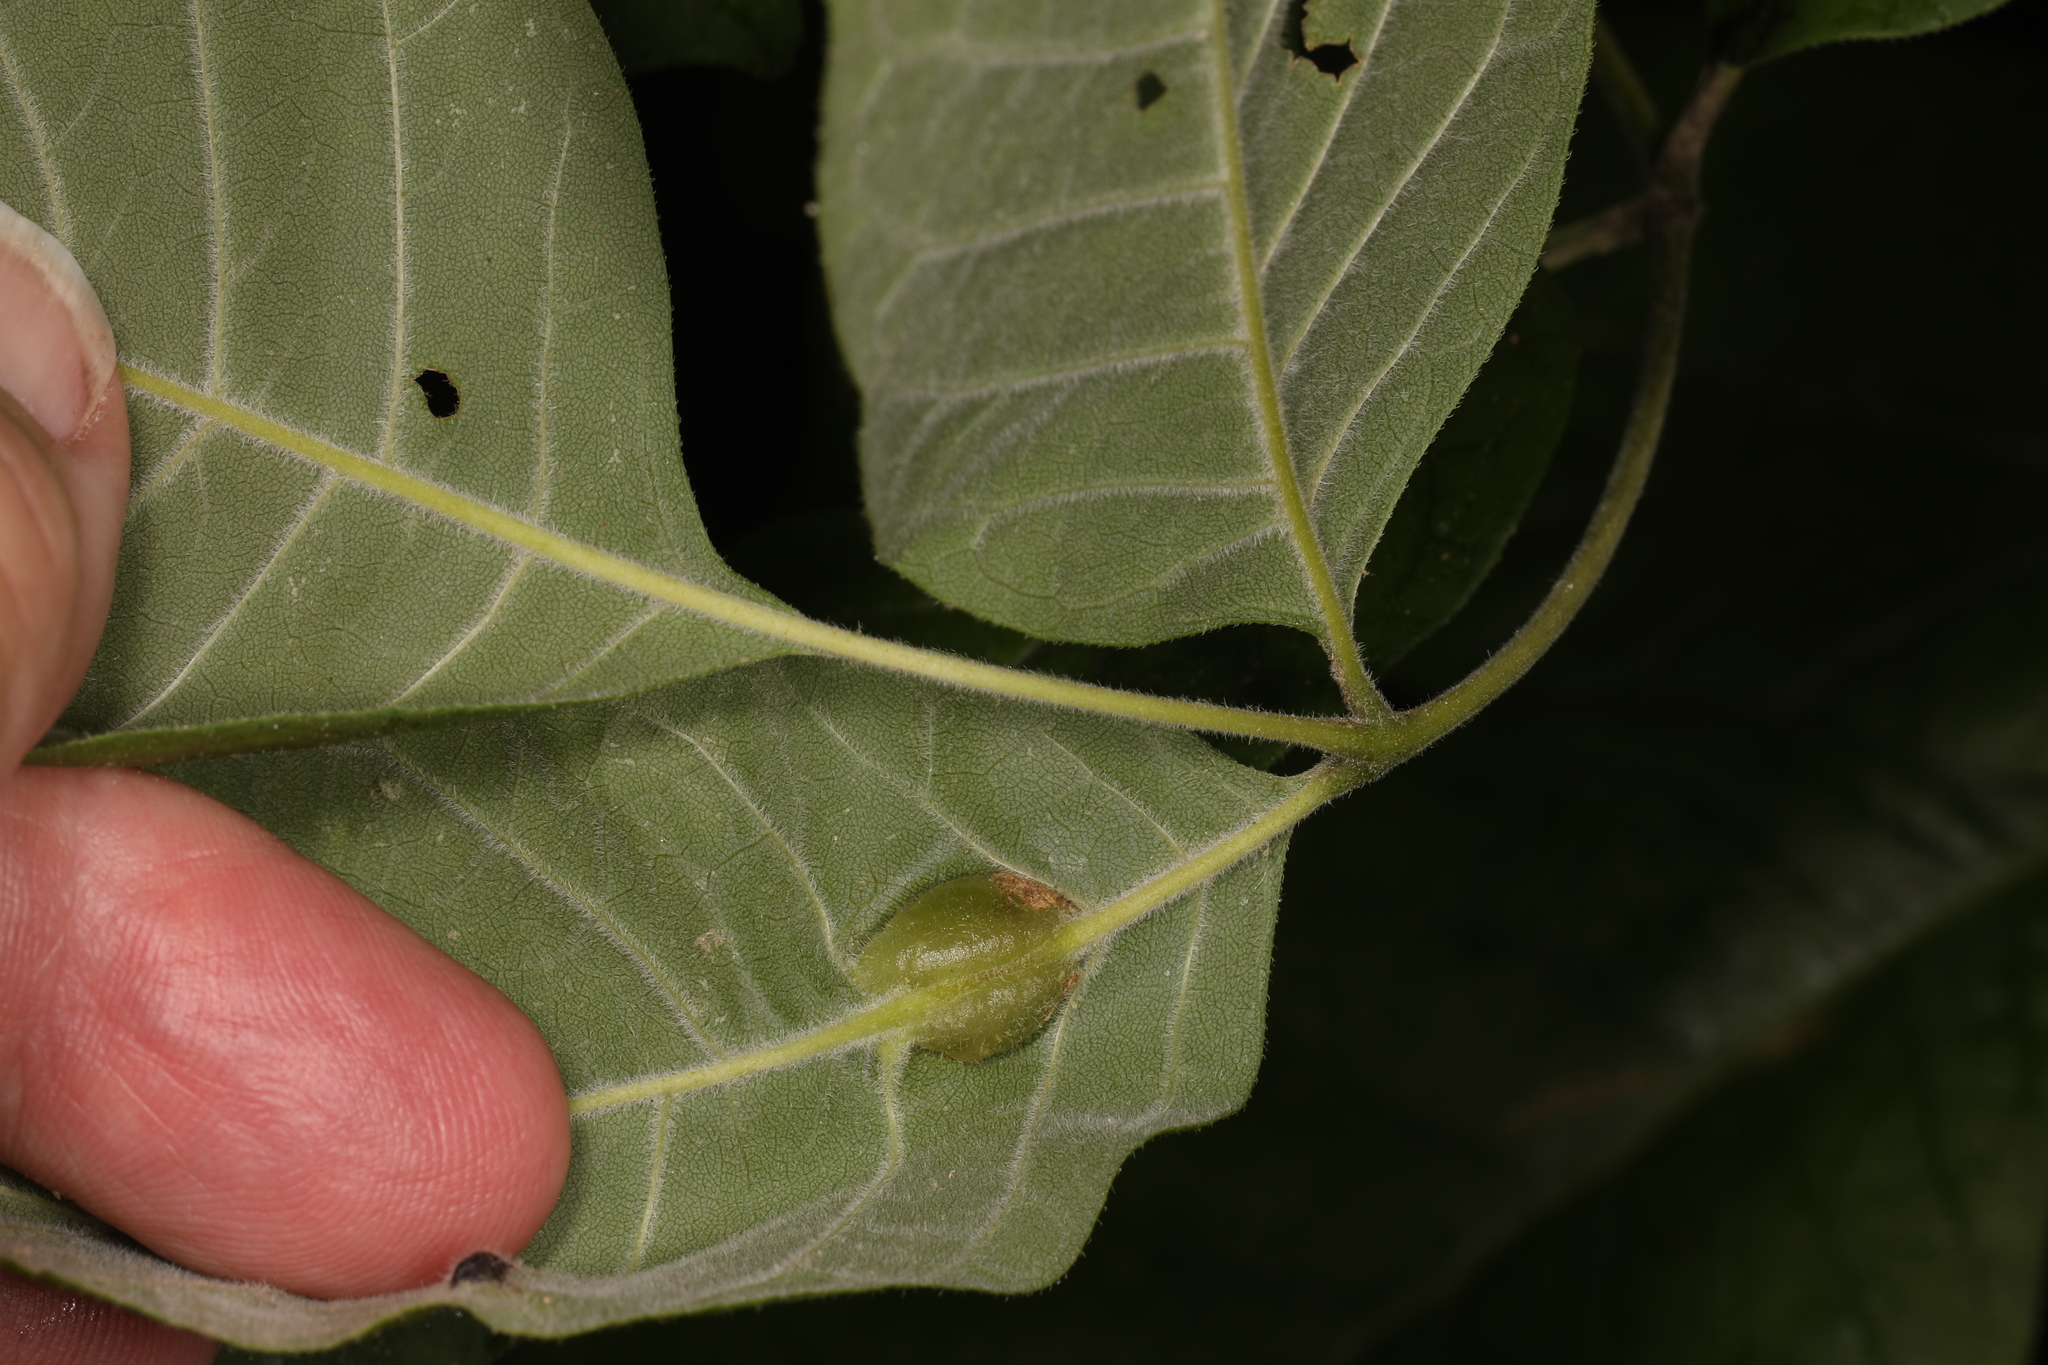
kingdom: Animalia
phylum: Arthropoda
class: Insecta
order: Diptera
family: Cecidomyiidae
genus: Dasineura
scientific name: Dasineura tumidosae
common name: Ash petiole gall midge
